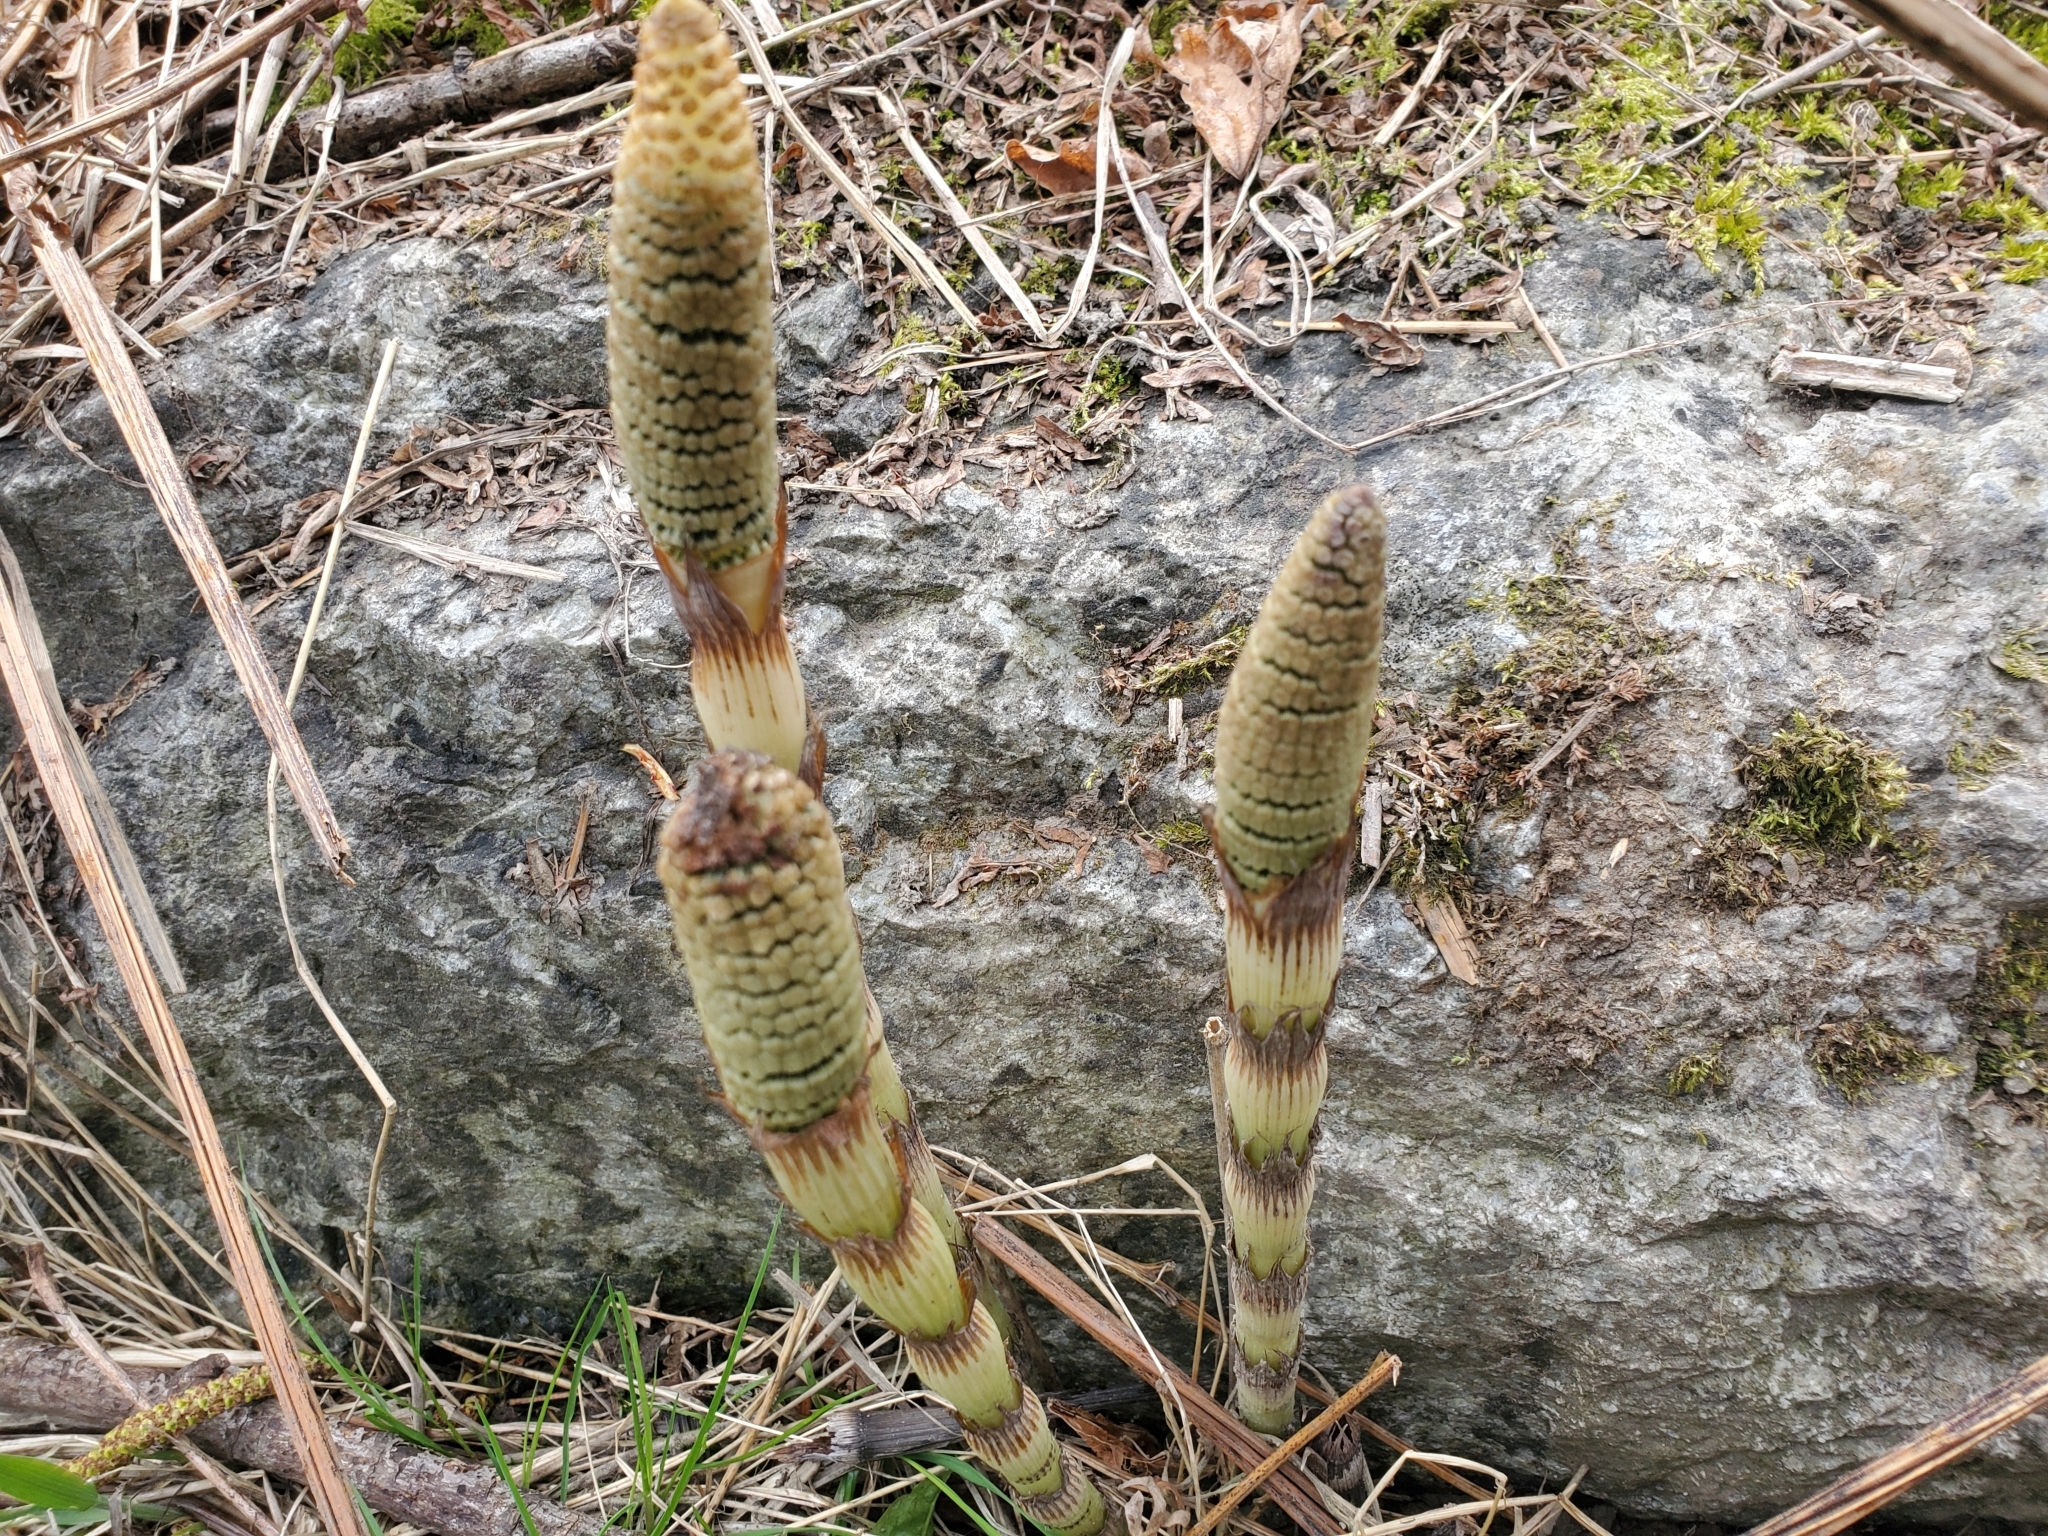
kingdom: Plantae
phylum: Tracheophyta
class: Polypodiopsida
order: Equisetales
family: Equisetaceae
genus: Equisetum
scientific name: Equisetum telmateia
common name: Great horsetail
